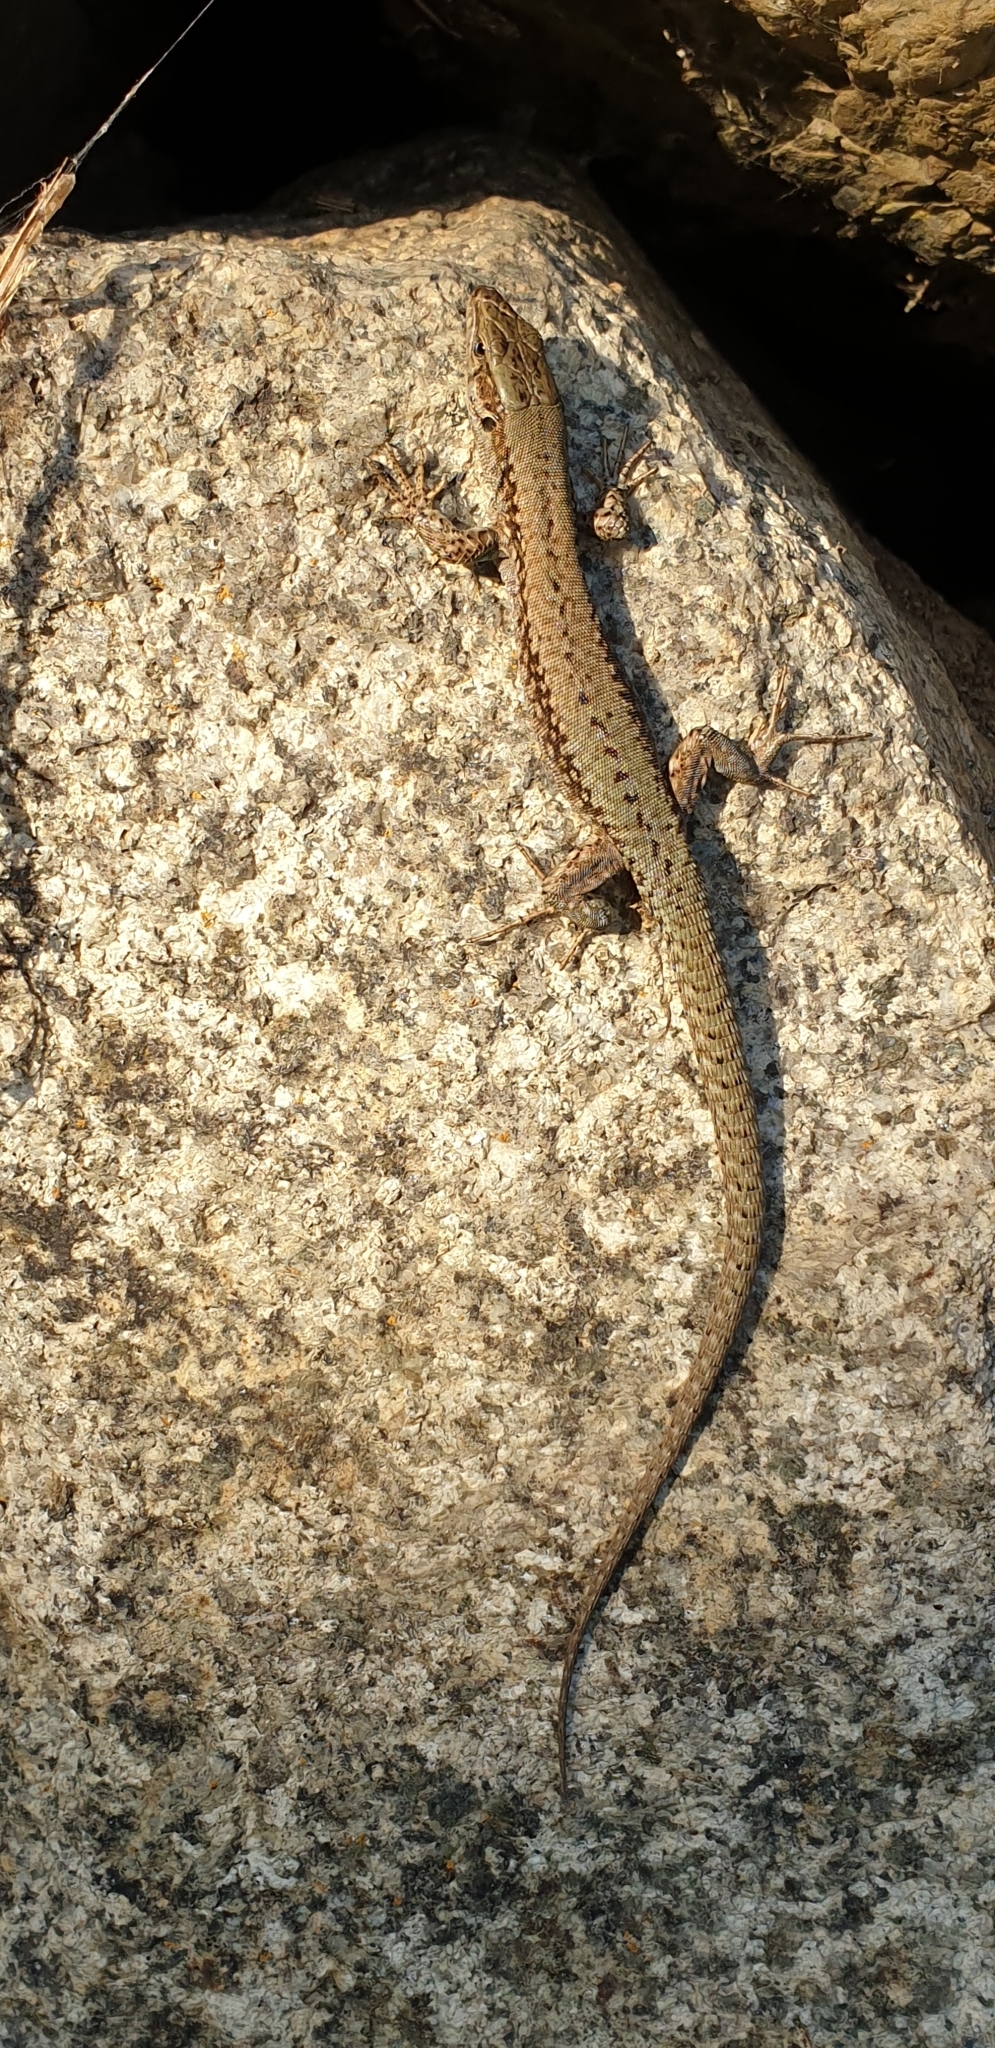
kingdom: Animalia
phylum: Chordata
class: Squamata
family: Lacertidae
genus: Podarcis
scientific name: Podarcis muralis
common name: Common wall lizard
